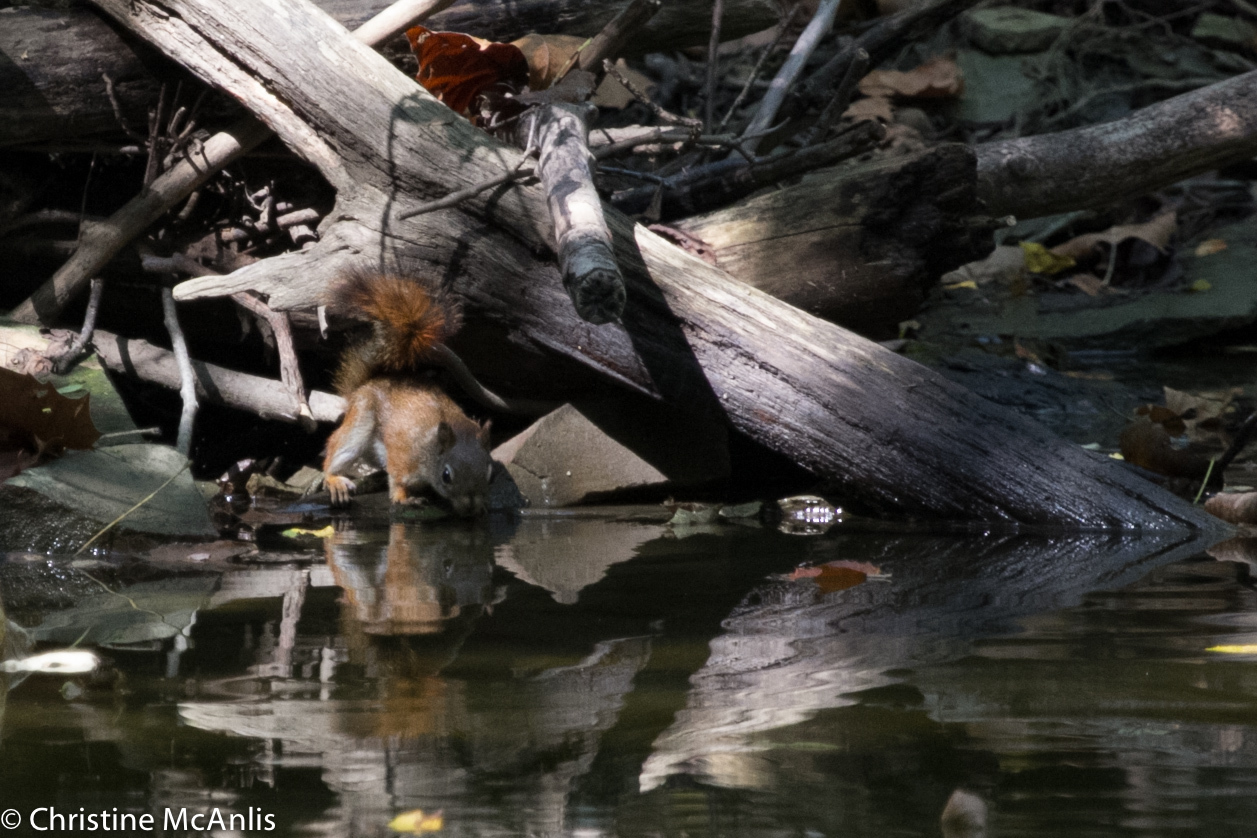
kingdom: Animalia
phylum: Chordata
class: Mammalia
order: Rodentia
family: Sciuridae
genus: Tamiasciurus
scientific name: Tamiasciurus hudsonicus
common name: Red squirrel
